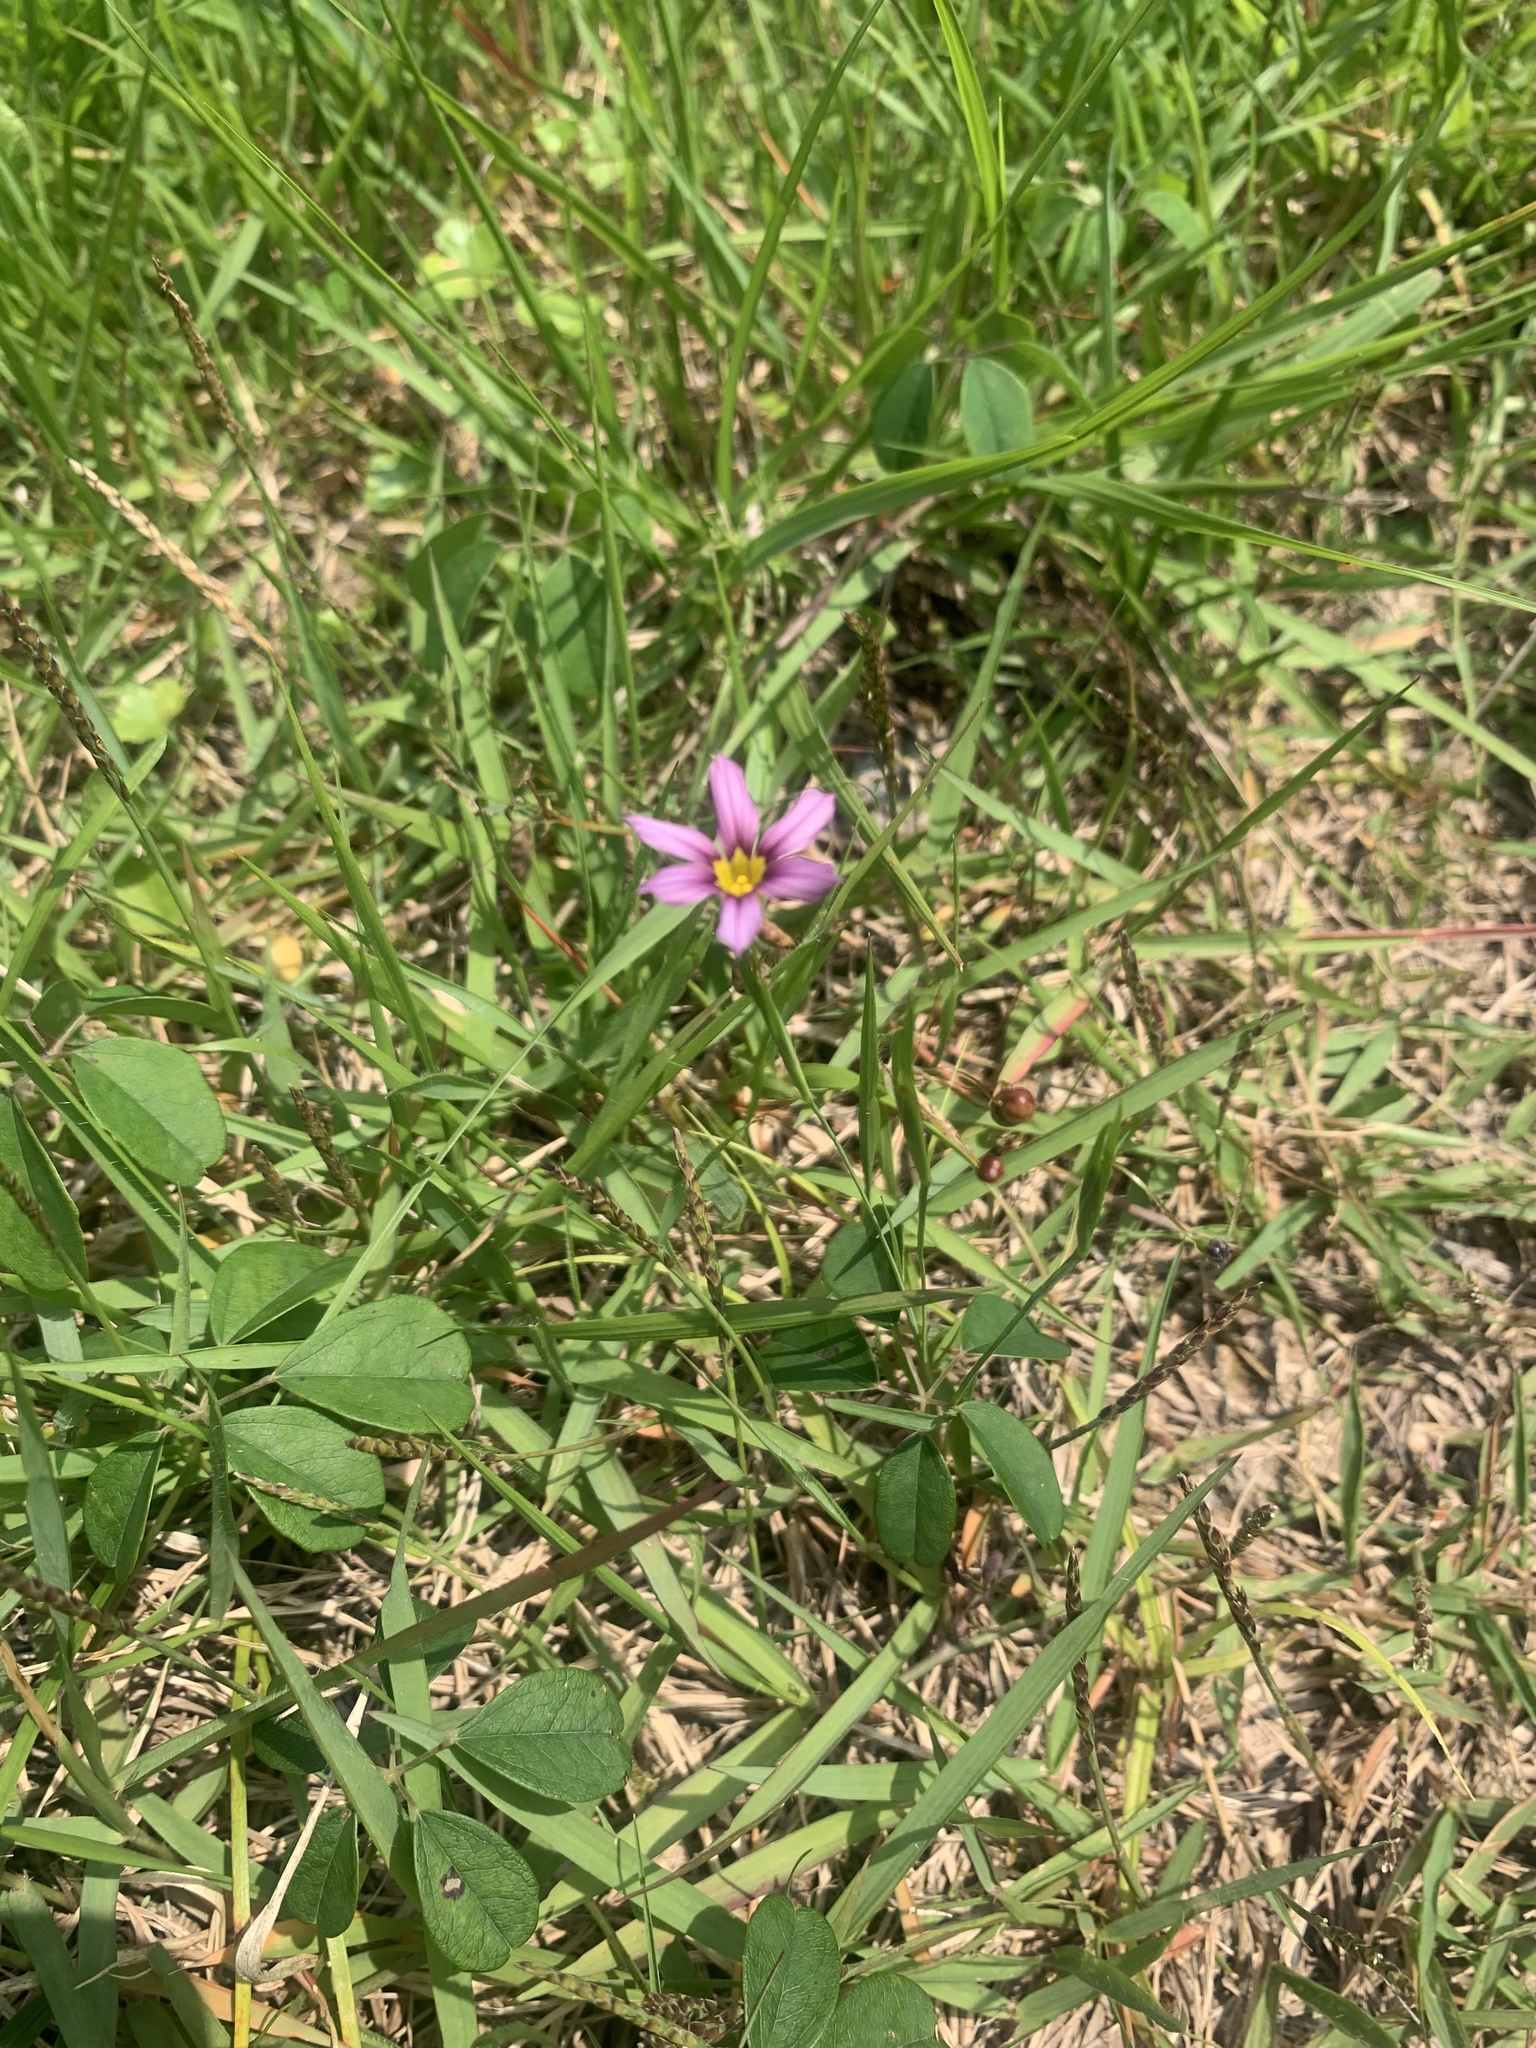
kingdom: Plantae
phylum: Tracheophyta
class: Liliopsida
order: Asparagales
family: Iridaceae
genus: Sisyrinchium
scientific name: Sisyrinchium micranthum
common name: Bermuda pigroot
